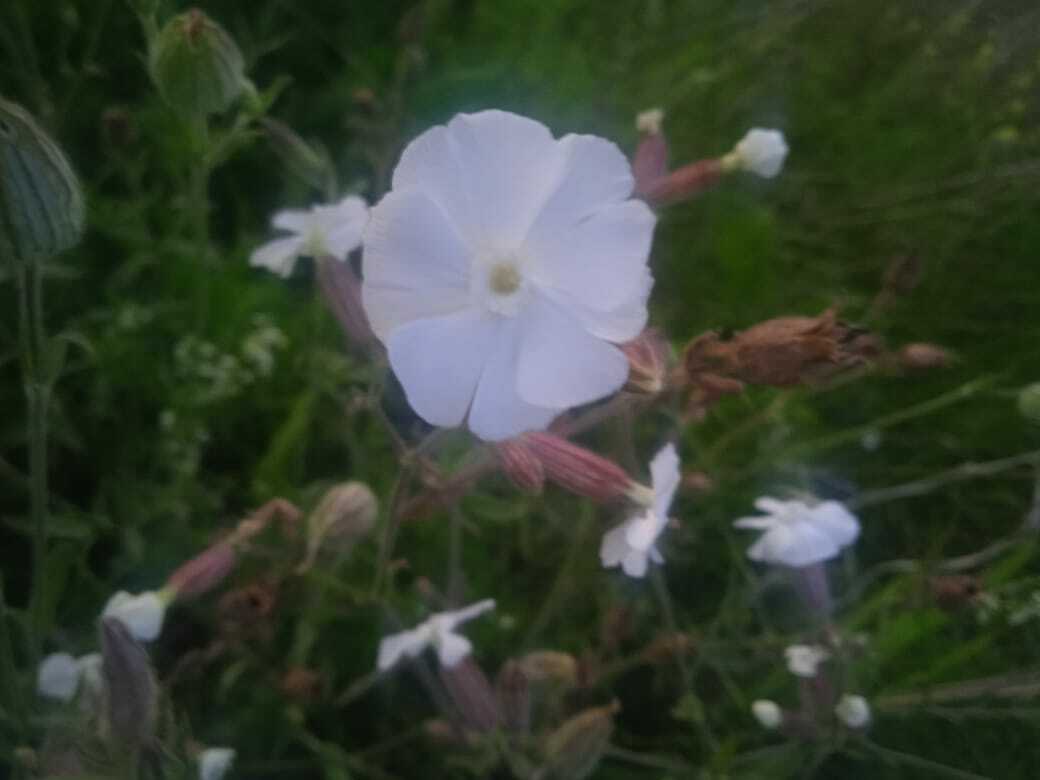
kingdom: Plantae
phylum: Tracheophyta
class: Magnoliopsida
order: Caryophyllales
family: Caryophyllaceae
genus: Silene
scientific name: Silene latifolia
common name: White campion
